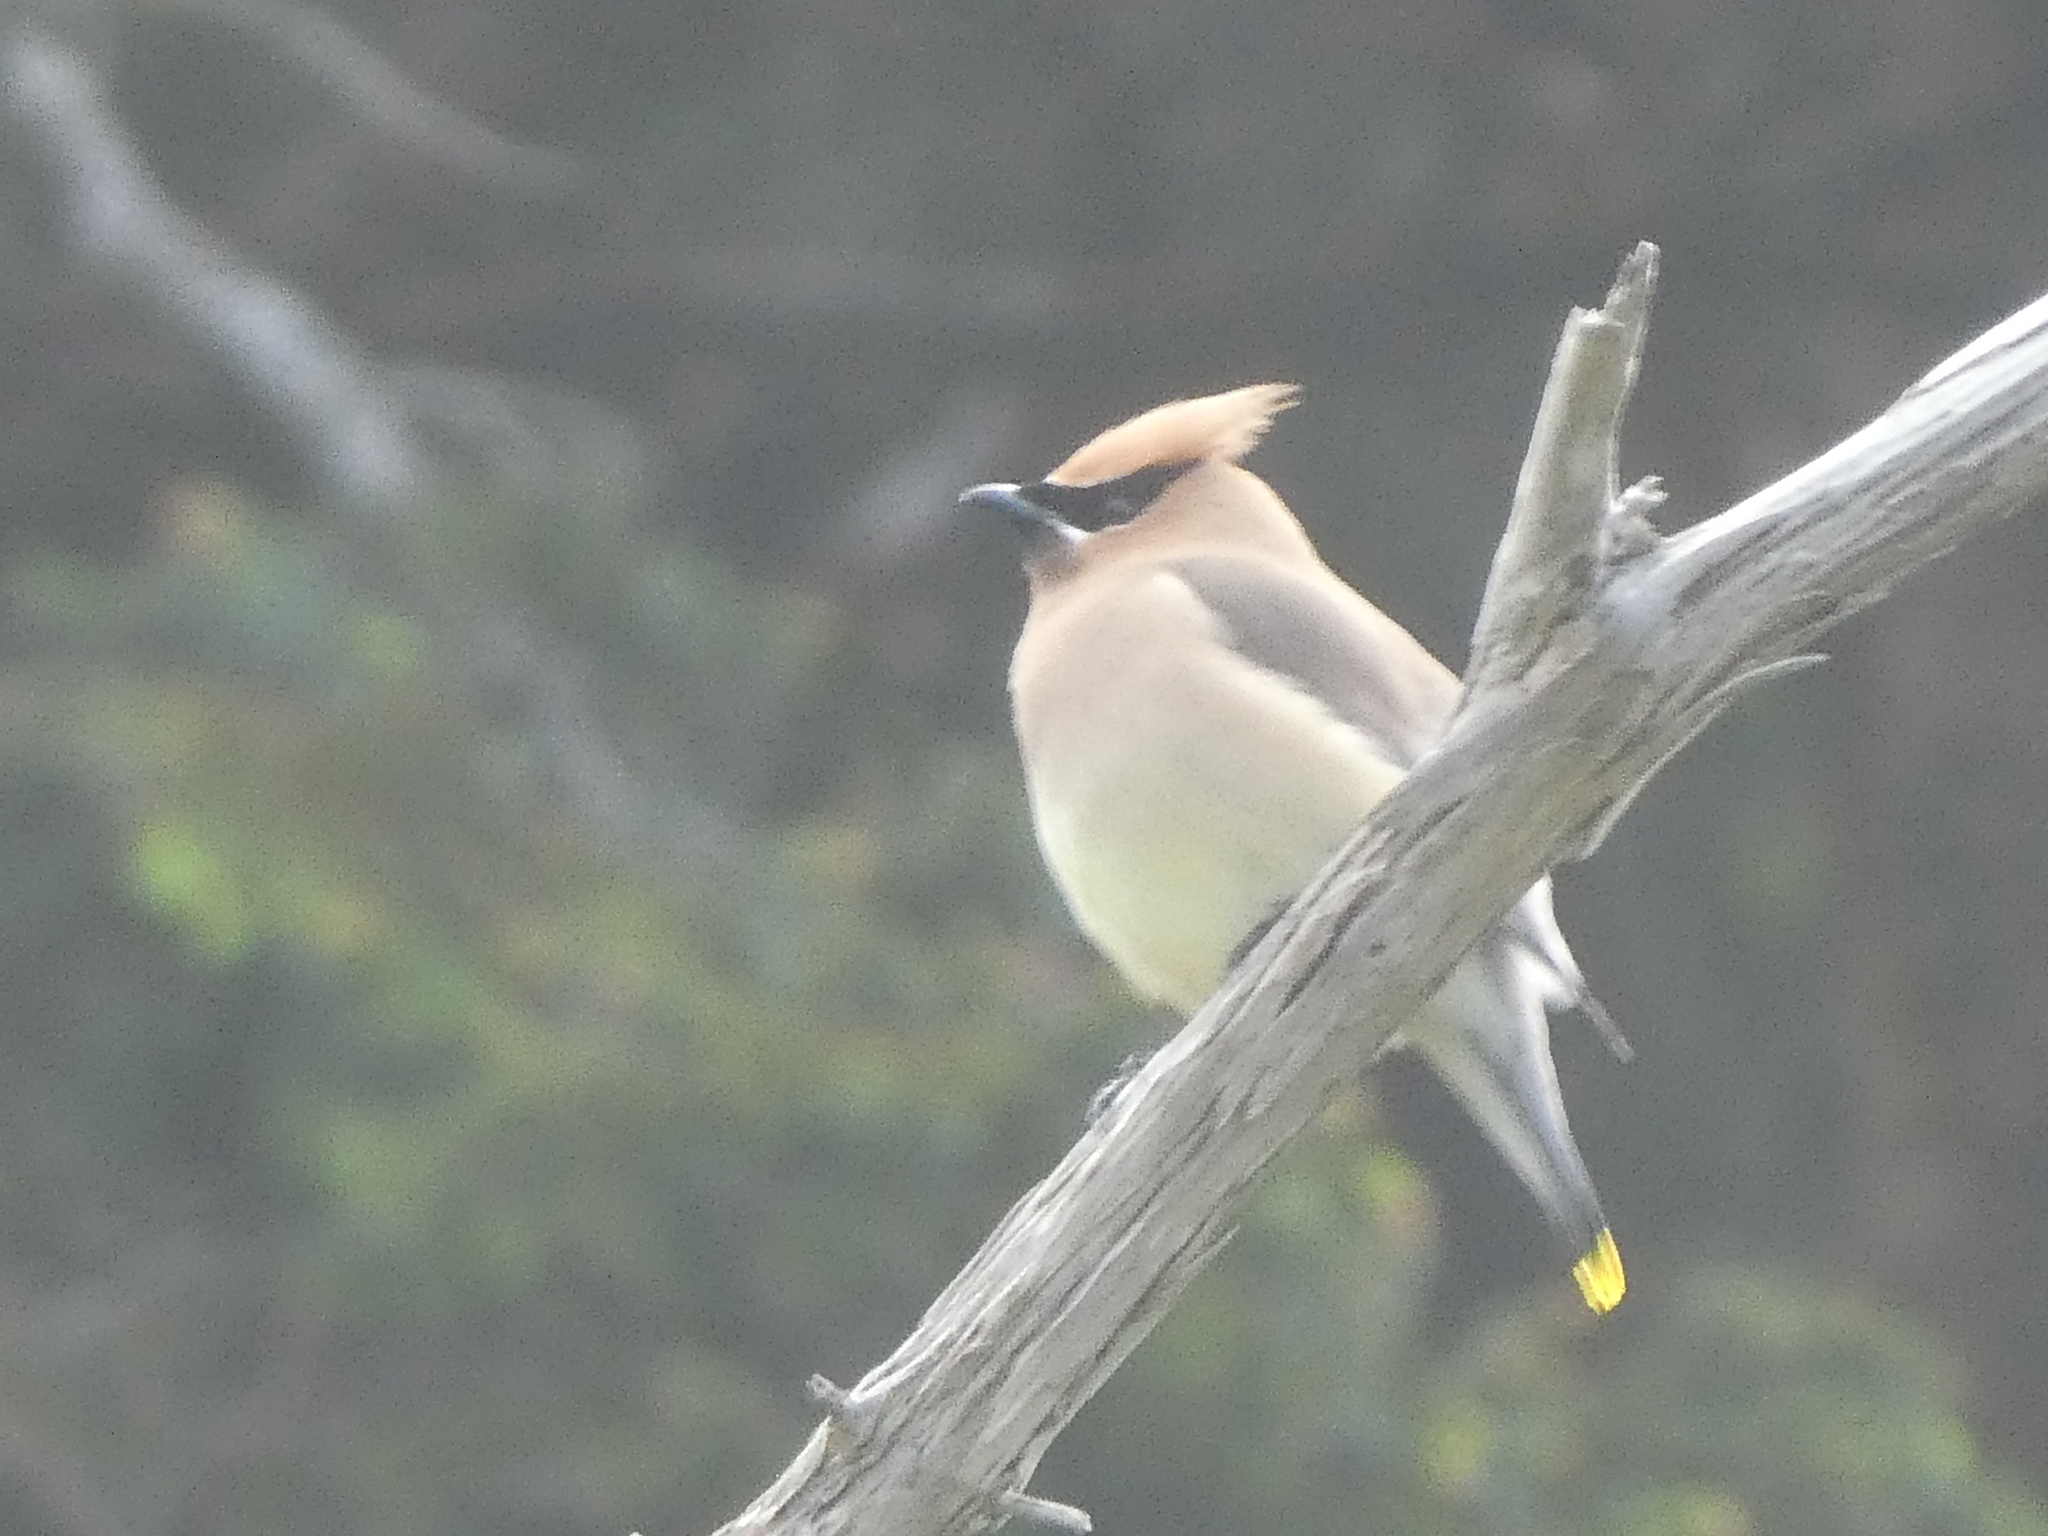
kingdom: Animalia
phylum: Chordata
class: Aves
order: Passeriformes
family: Bombycillidae
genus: Bombycilla
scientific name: Bombycilla cedrorum
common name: Cedar waxwing
